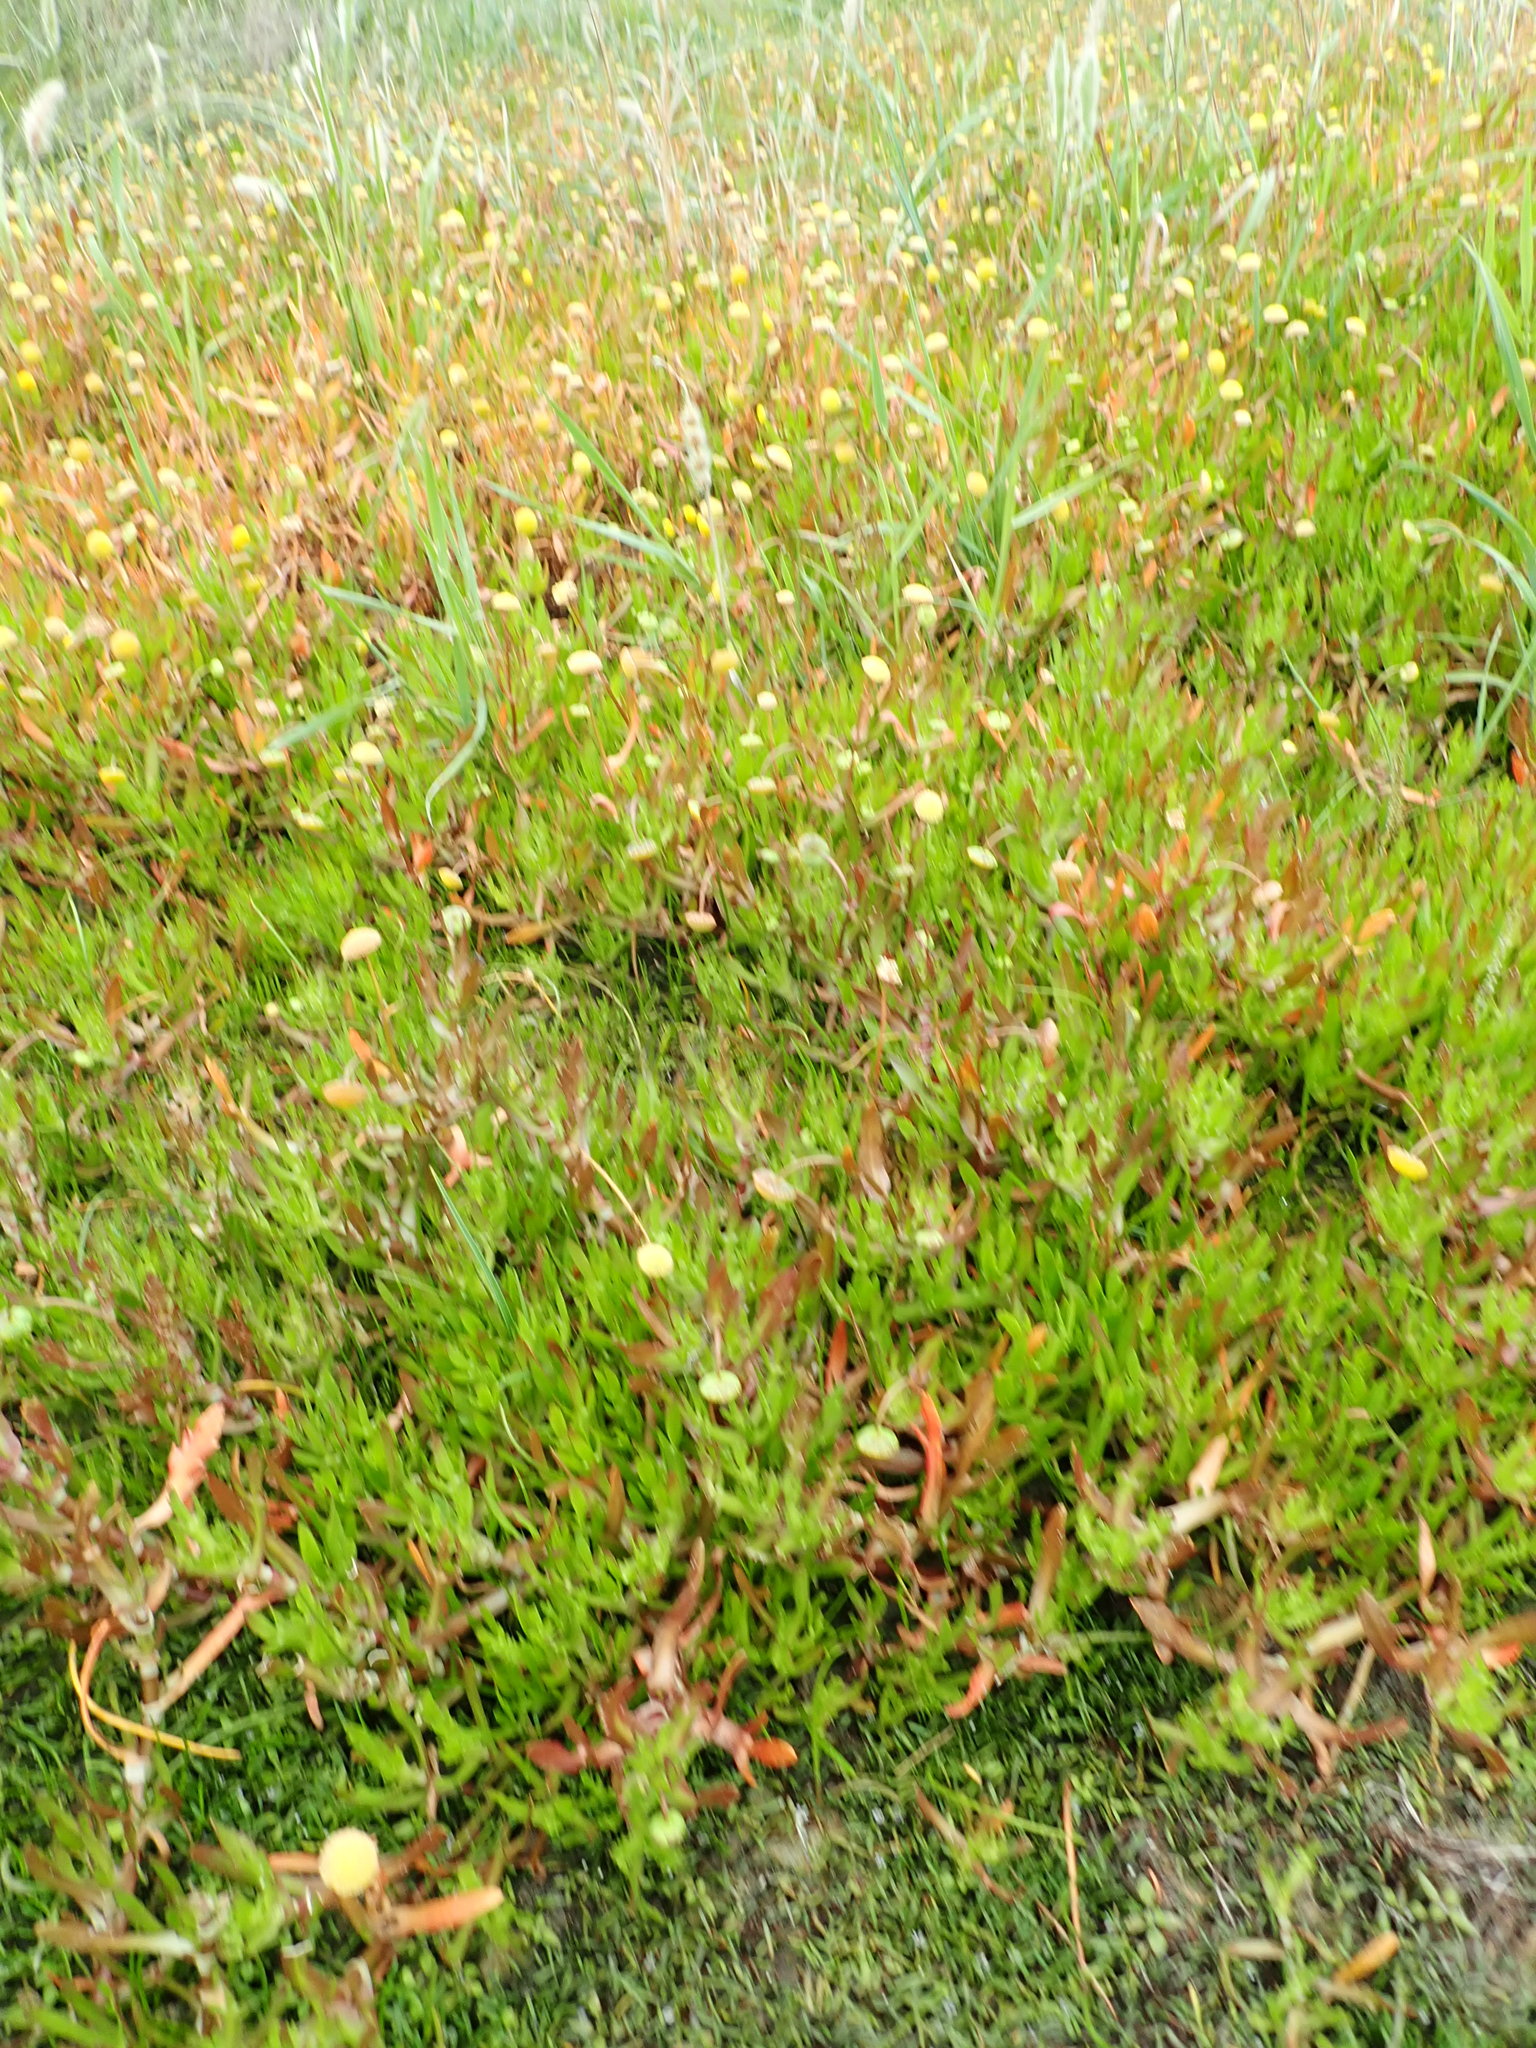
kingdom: Plantae
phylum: Tracheophyta
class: Magnoliopsida
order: Asterales
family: Asteraceae
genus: Cotula
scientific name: Cotula coronopifolia
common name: Buttonweed
